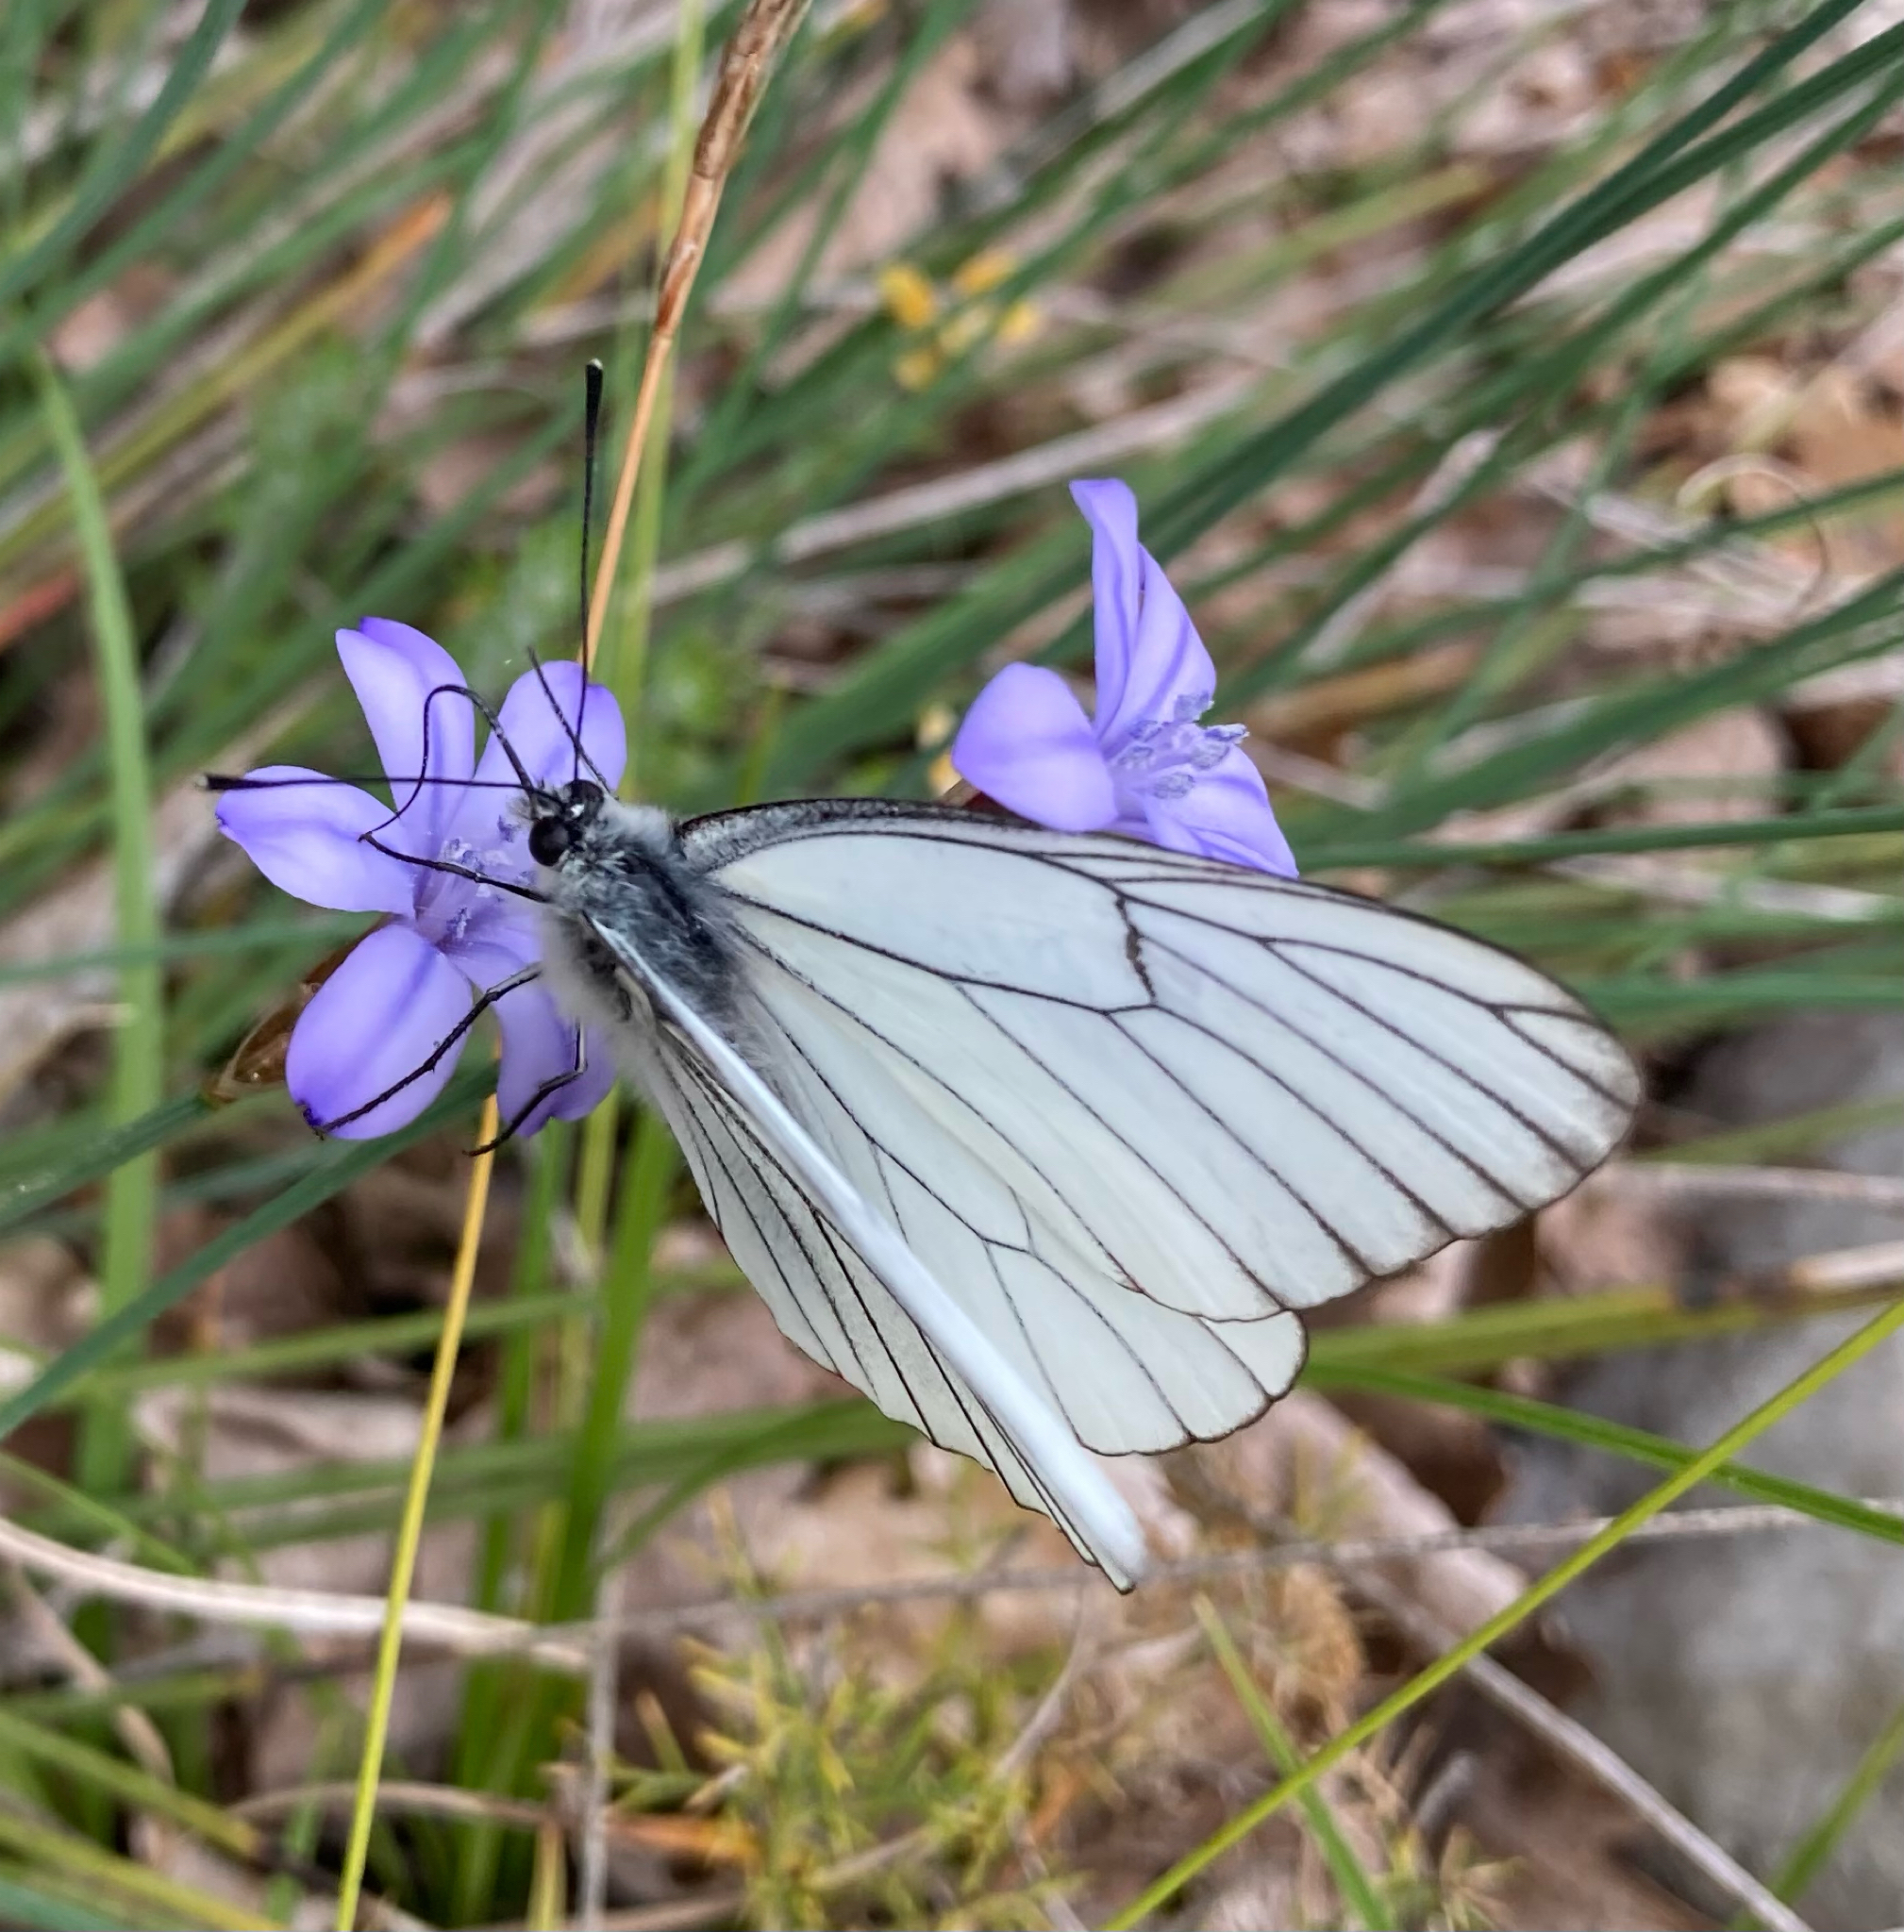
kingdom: Animalia
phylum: Arthropoda
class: Insecta
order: Lepidoptera
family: Pieridae
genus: Aporia
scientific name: Aporia crataegi
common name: Black-veined white
